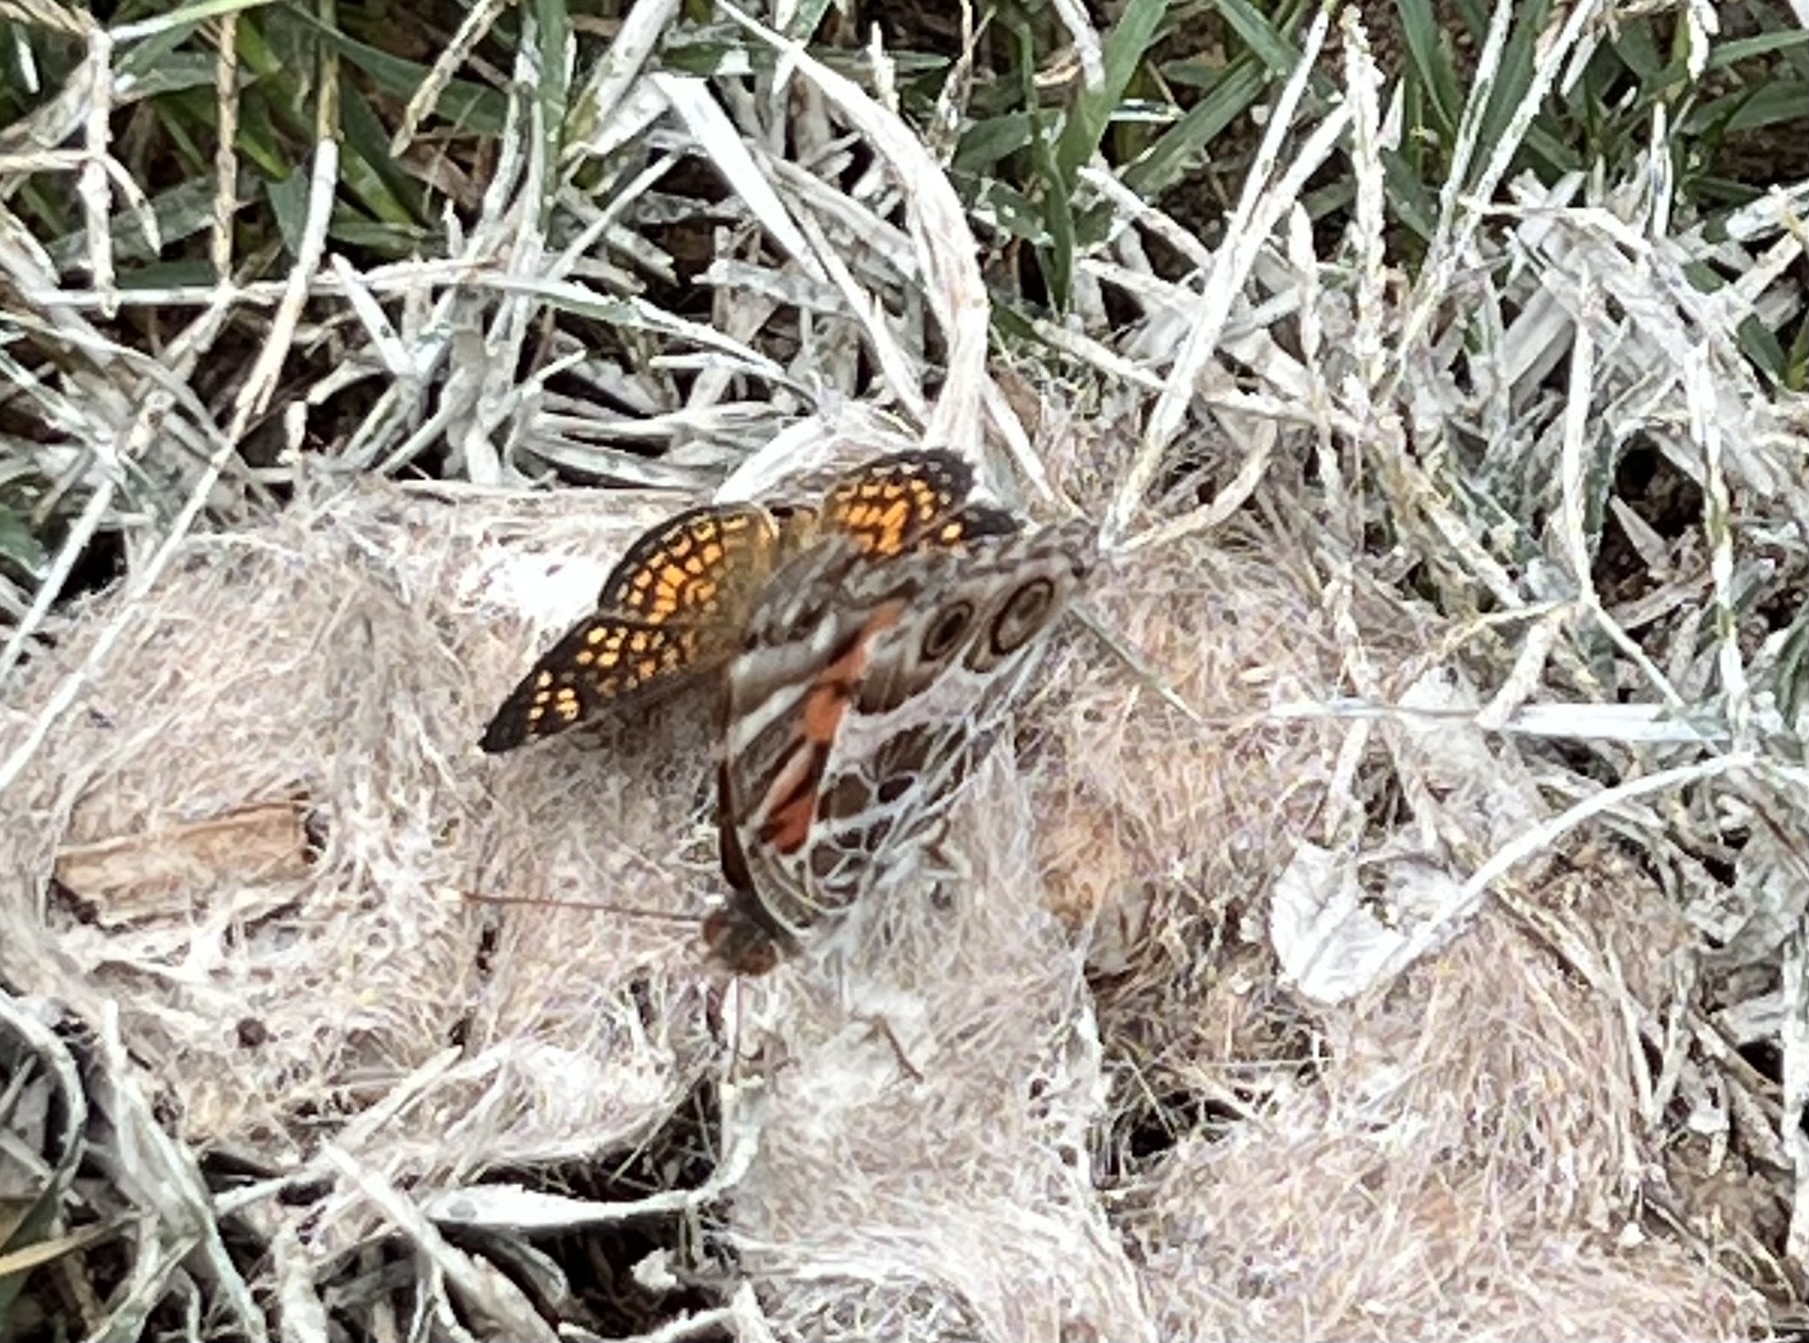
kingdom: Animalia
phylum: Arthropoda
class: Insecta
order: Lepidoptera
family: Nymphalidae
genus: Vanessa
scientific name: Vanessa virginiensis
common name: American lady
